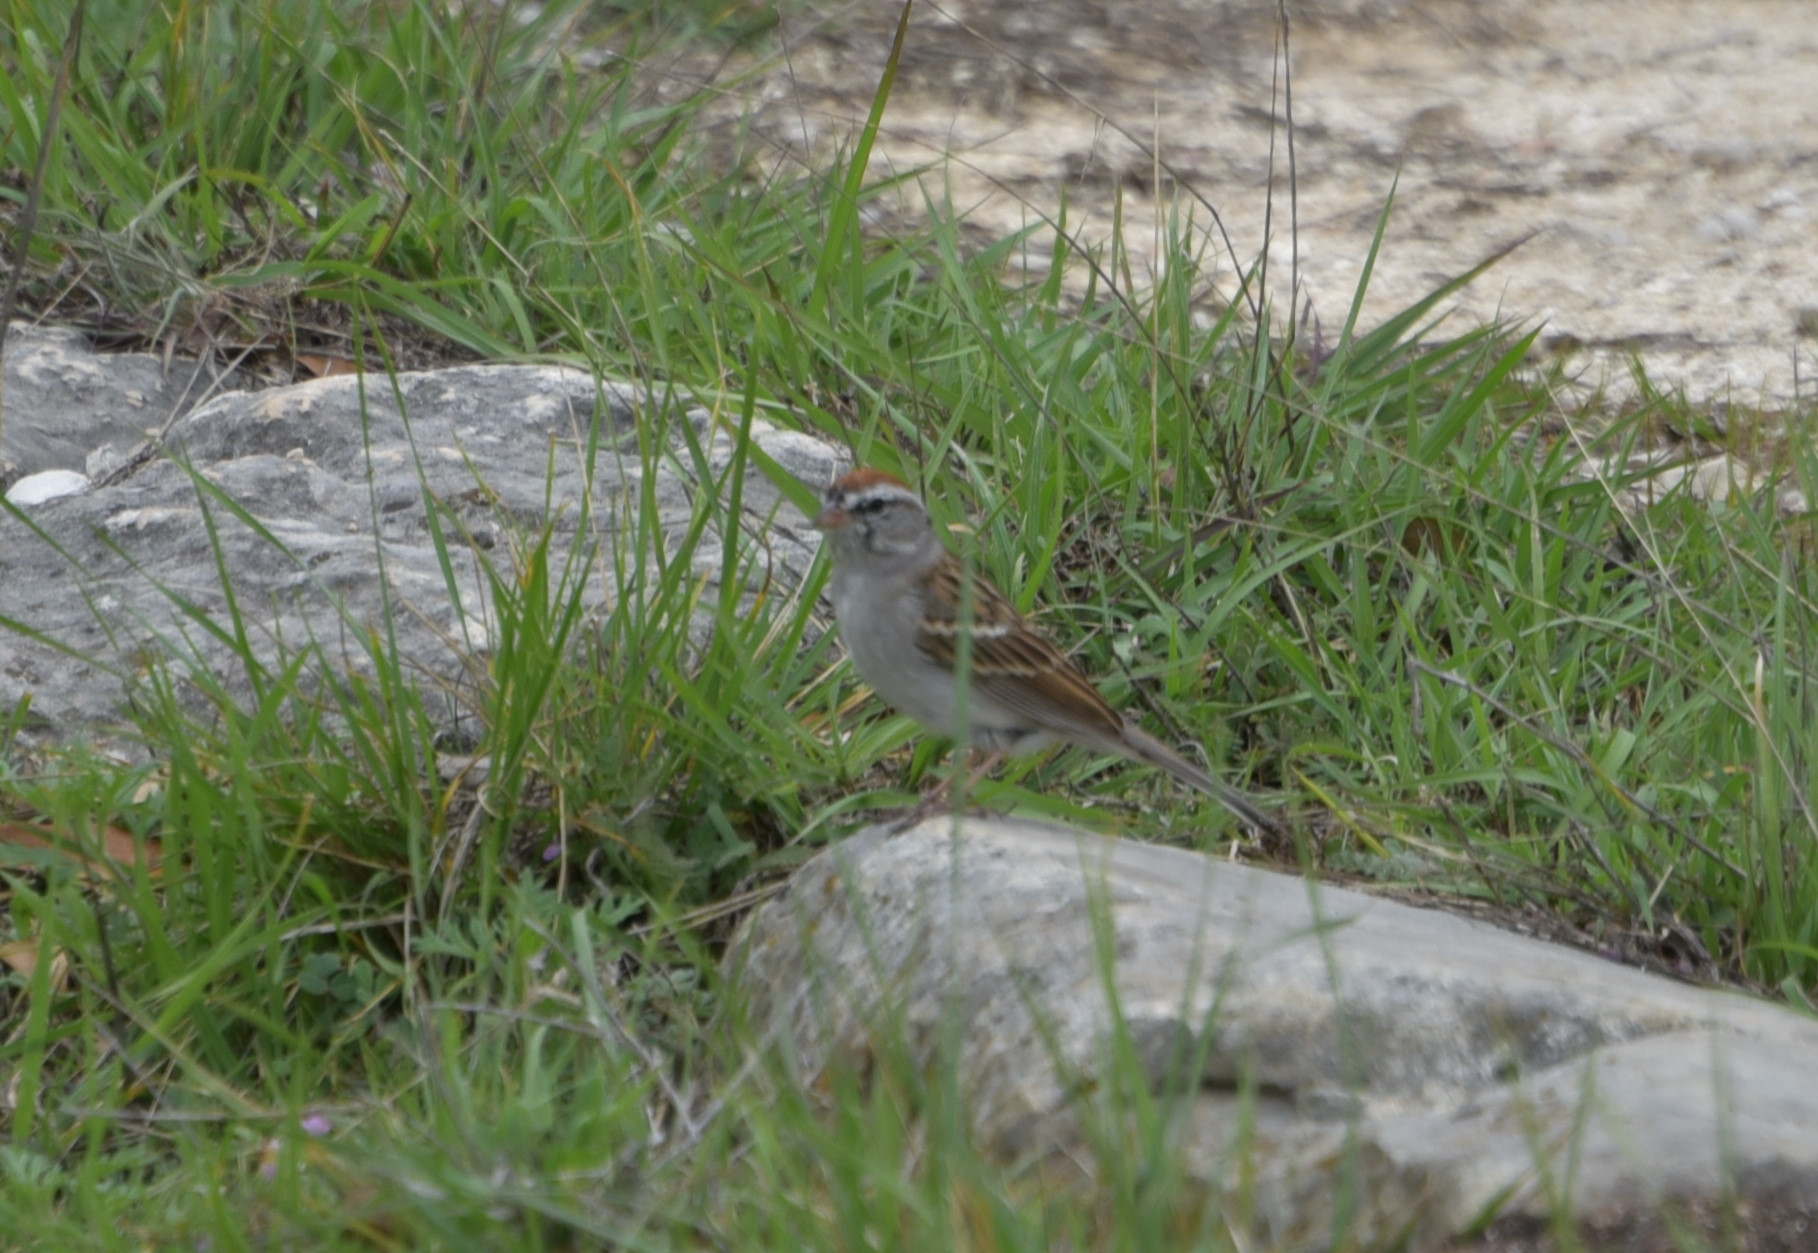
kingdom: Animalia
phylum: Chordata
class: Aves
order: Passeriformes
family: Passerellidae
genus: Spizella
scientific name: Spizella passerina
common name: Chipping sparrow
